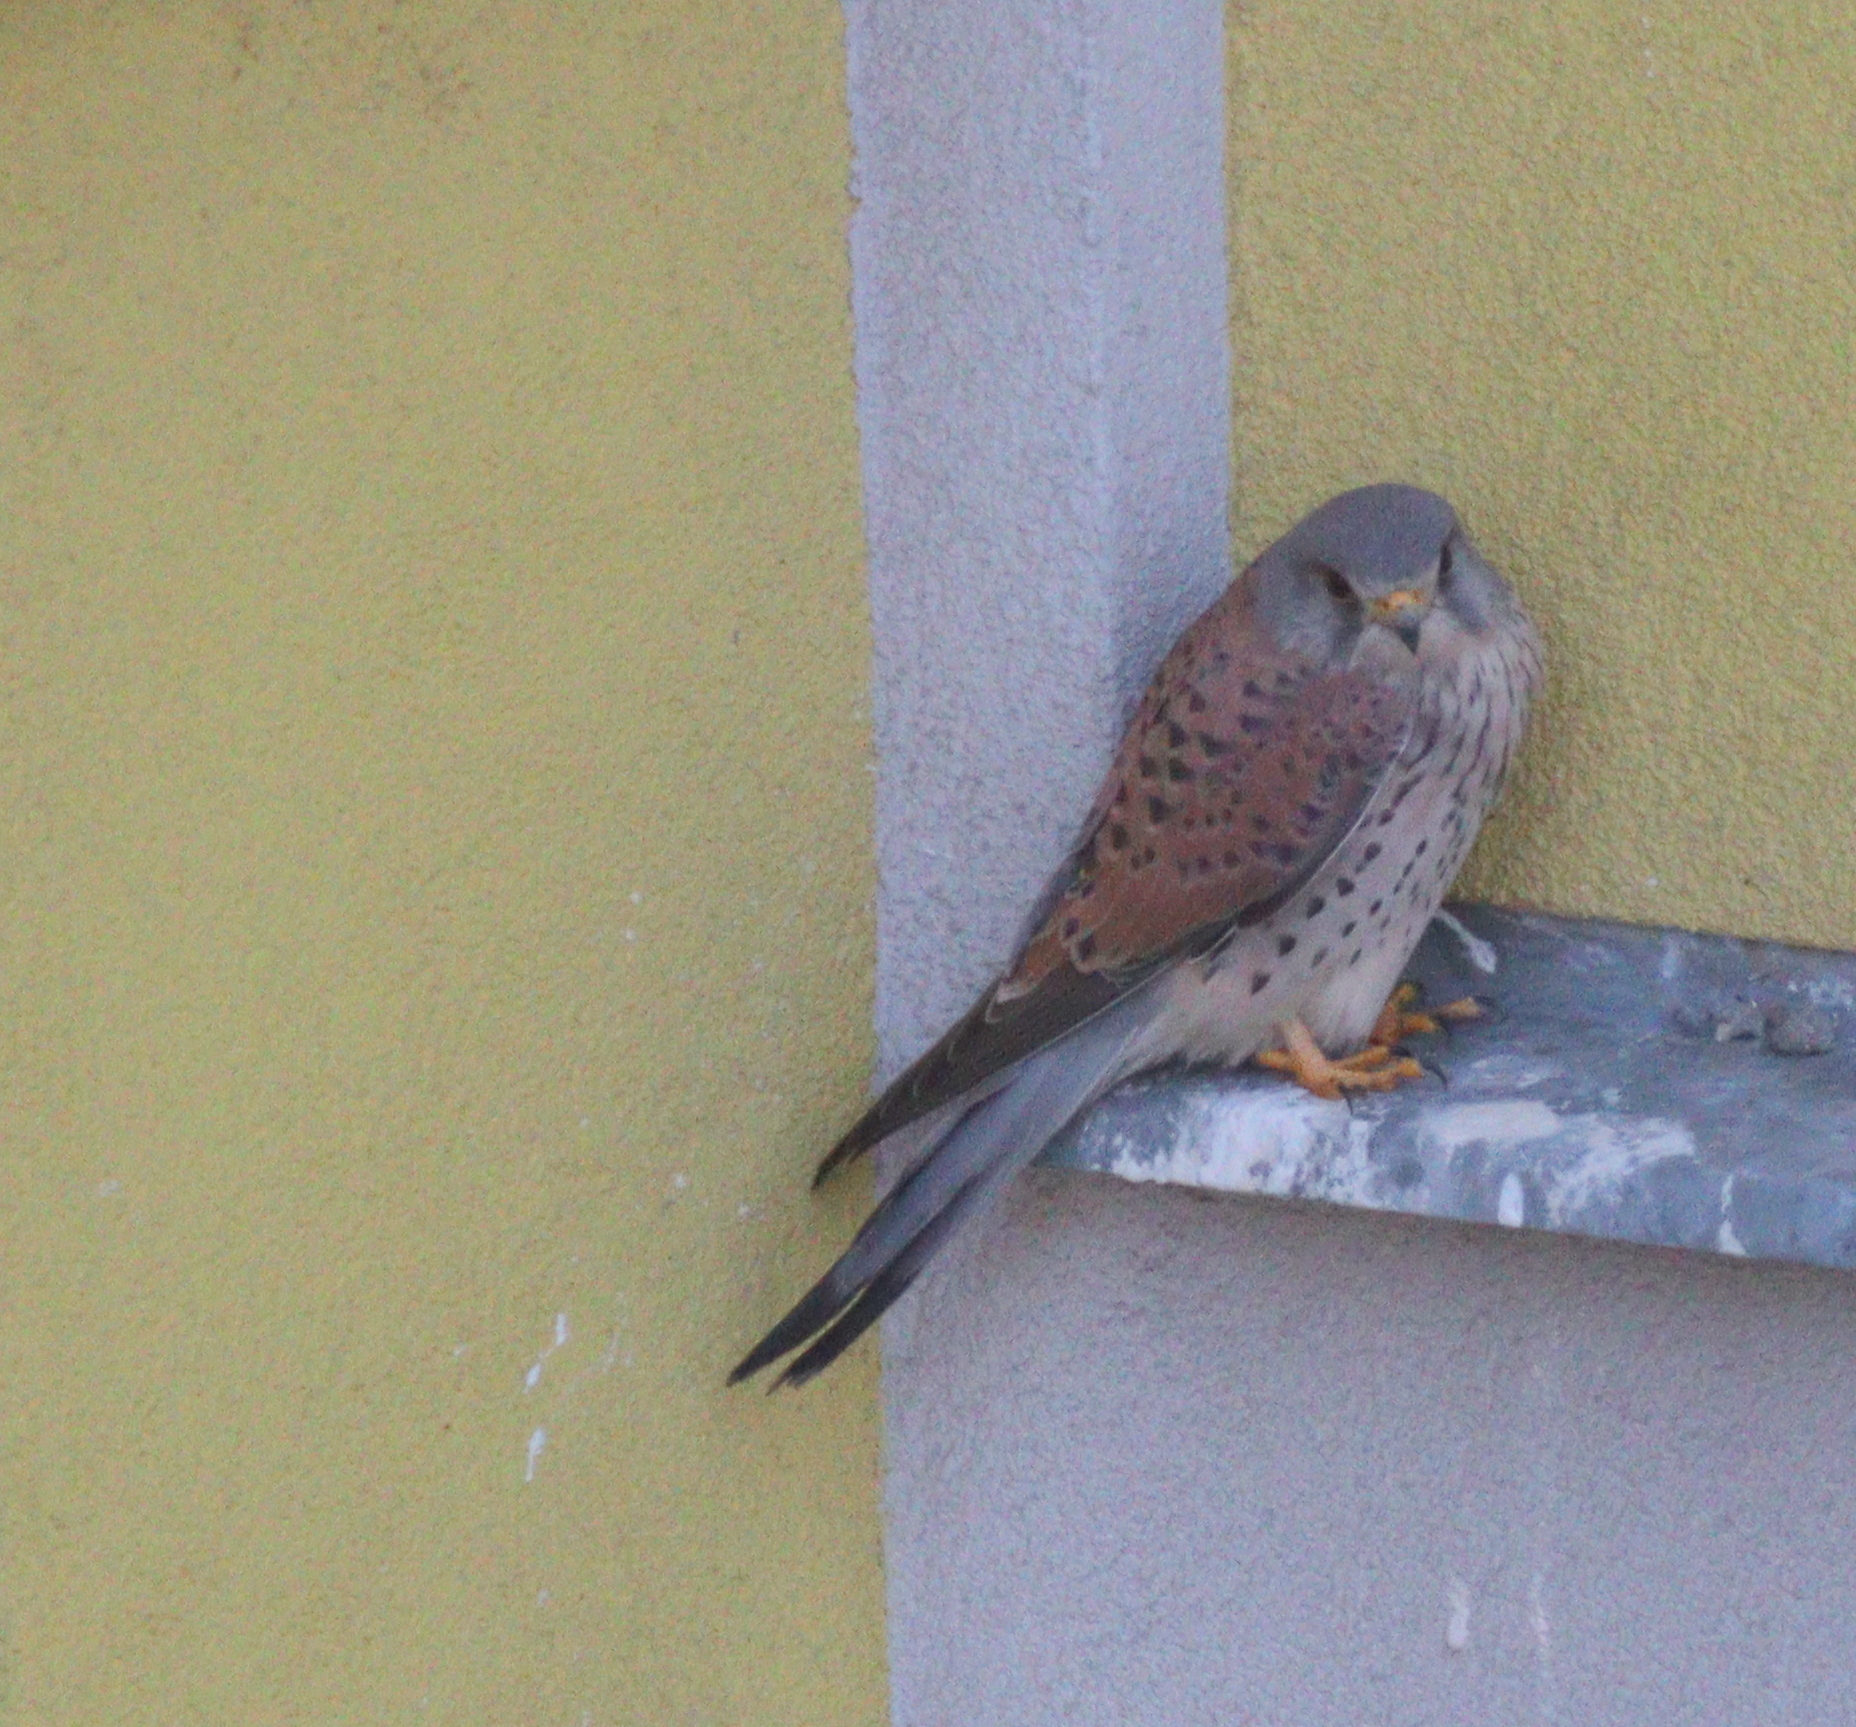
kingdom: Animalia
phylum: Chordata
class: Aves
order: Falconiformes
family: Falconidae
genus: Falco
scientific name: Falco tinnunculus
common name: Common kestrel
